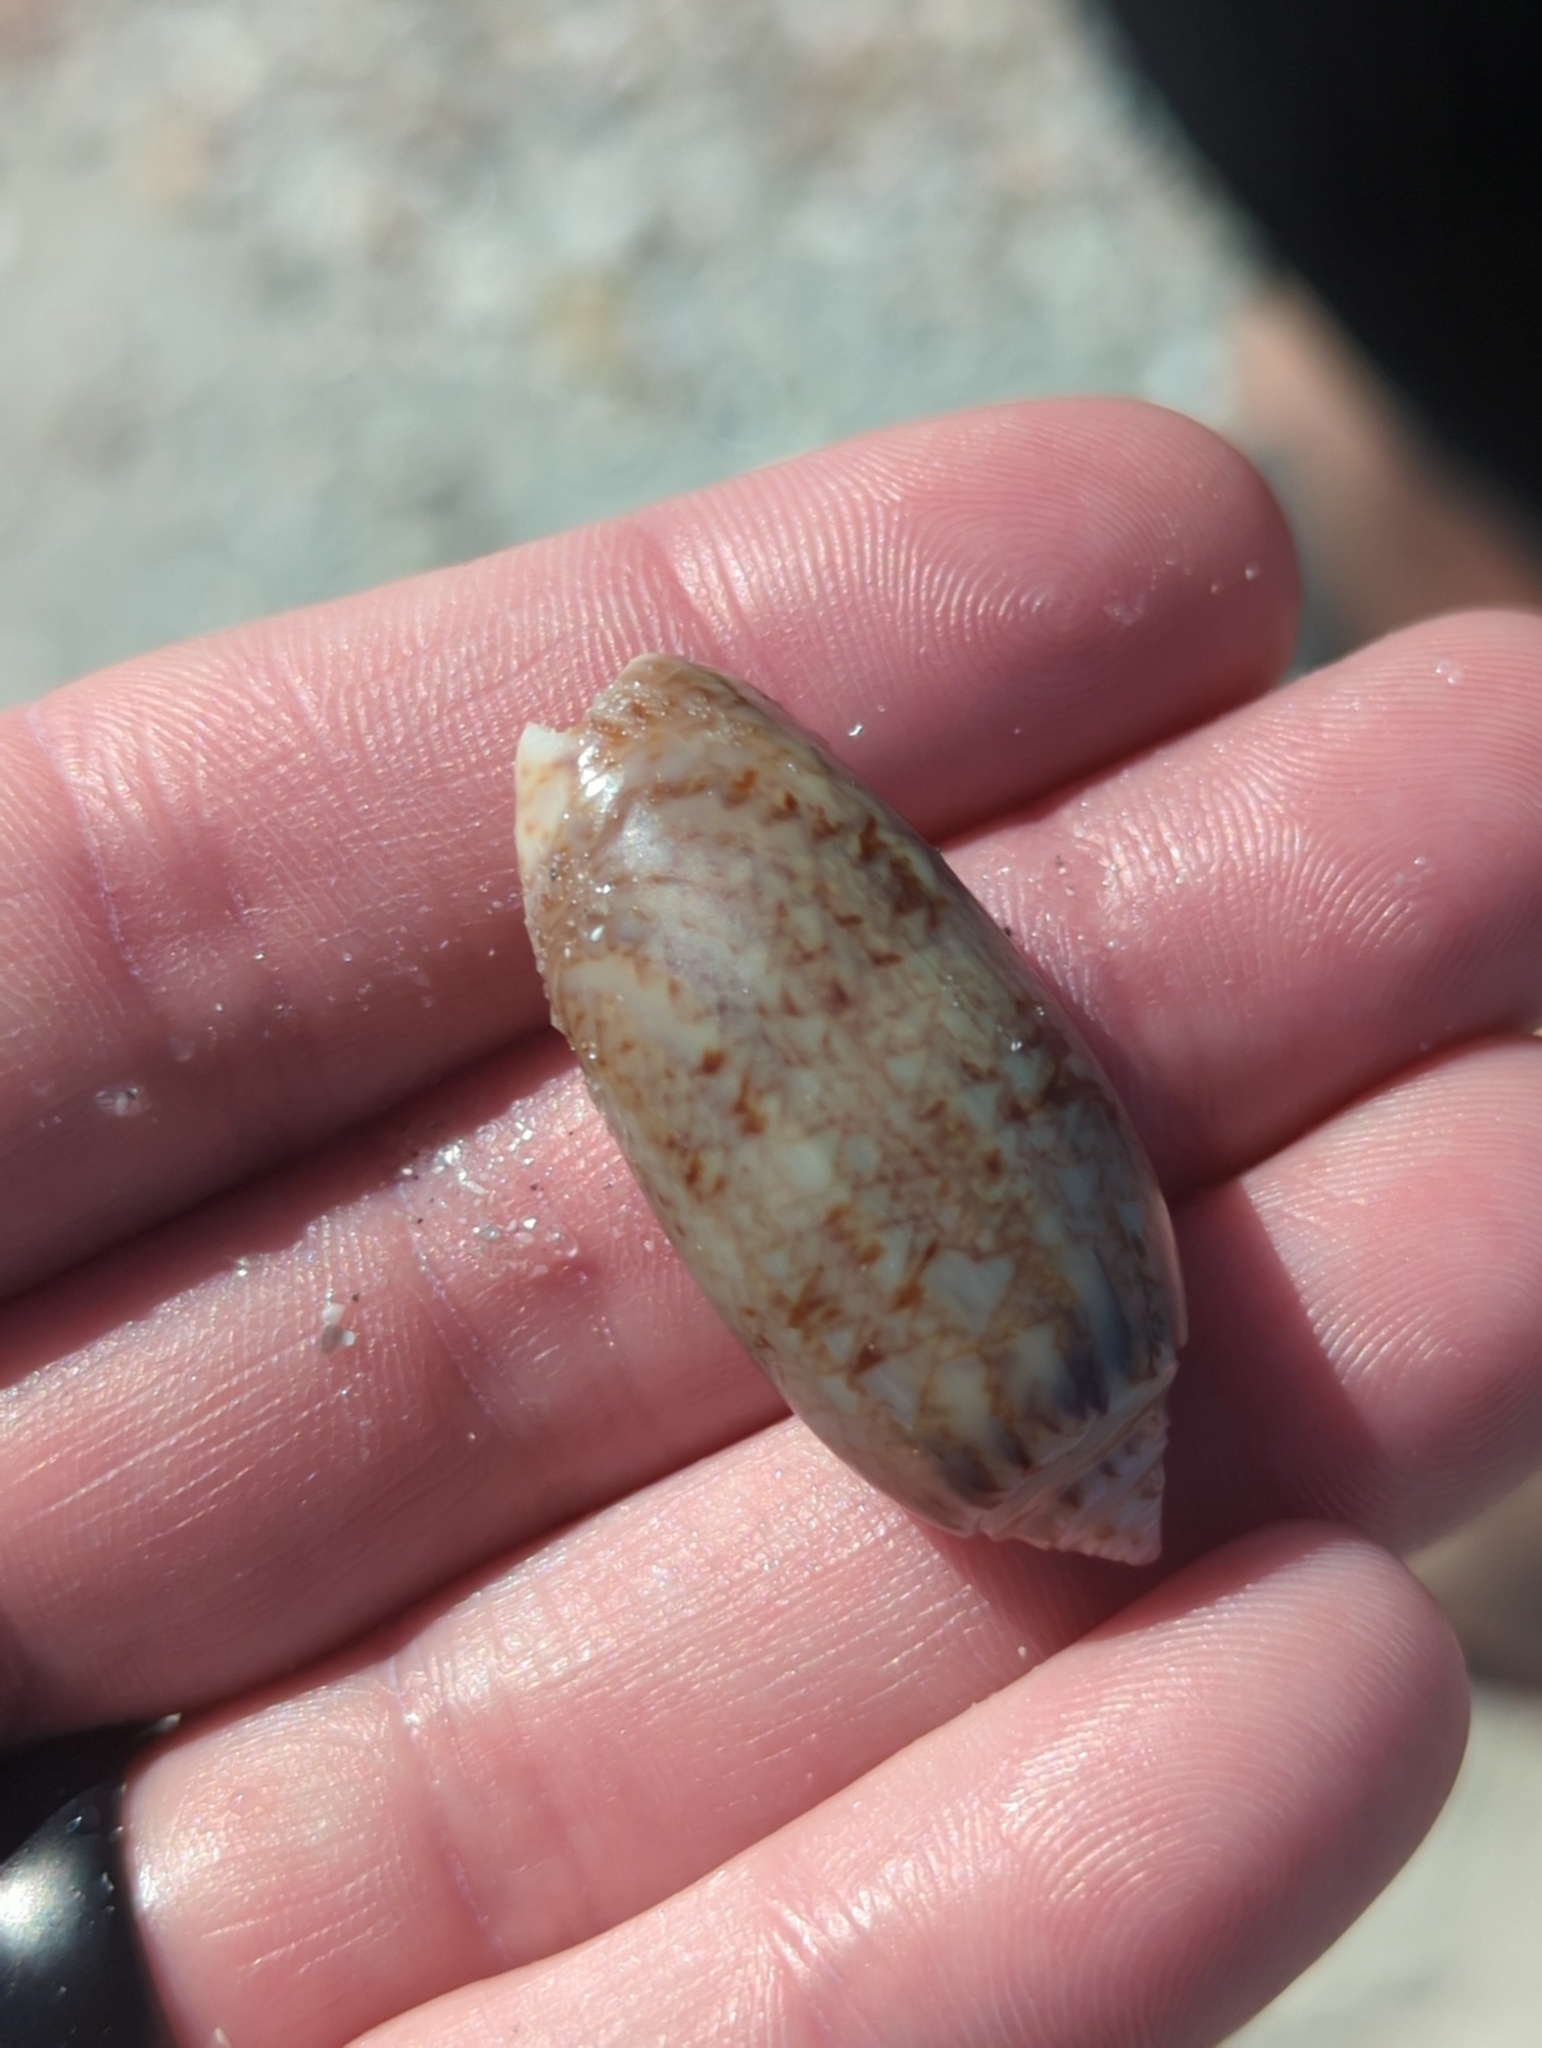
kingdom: Animalia
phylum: Mollusca
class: Gastropoda
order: Neogastropoda
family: Olividae
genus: Oliva
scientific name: Oliva sayana
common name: Lettered olive
